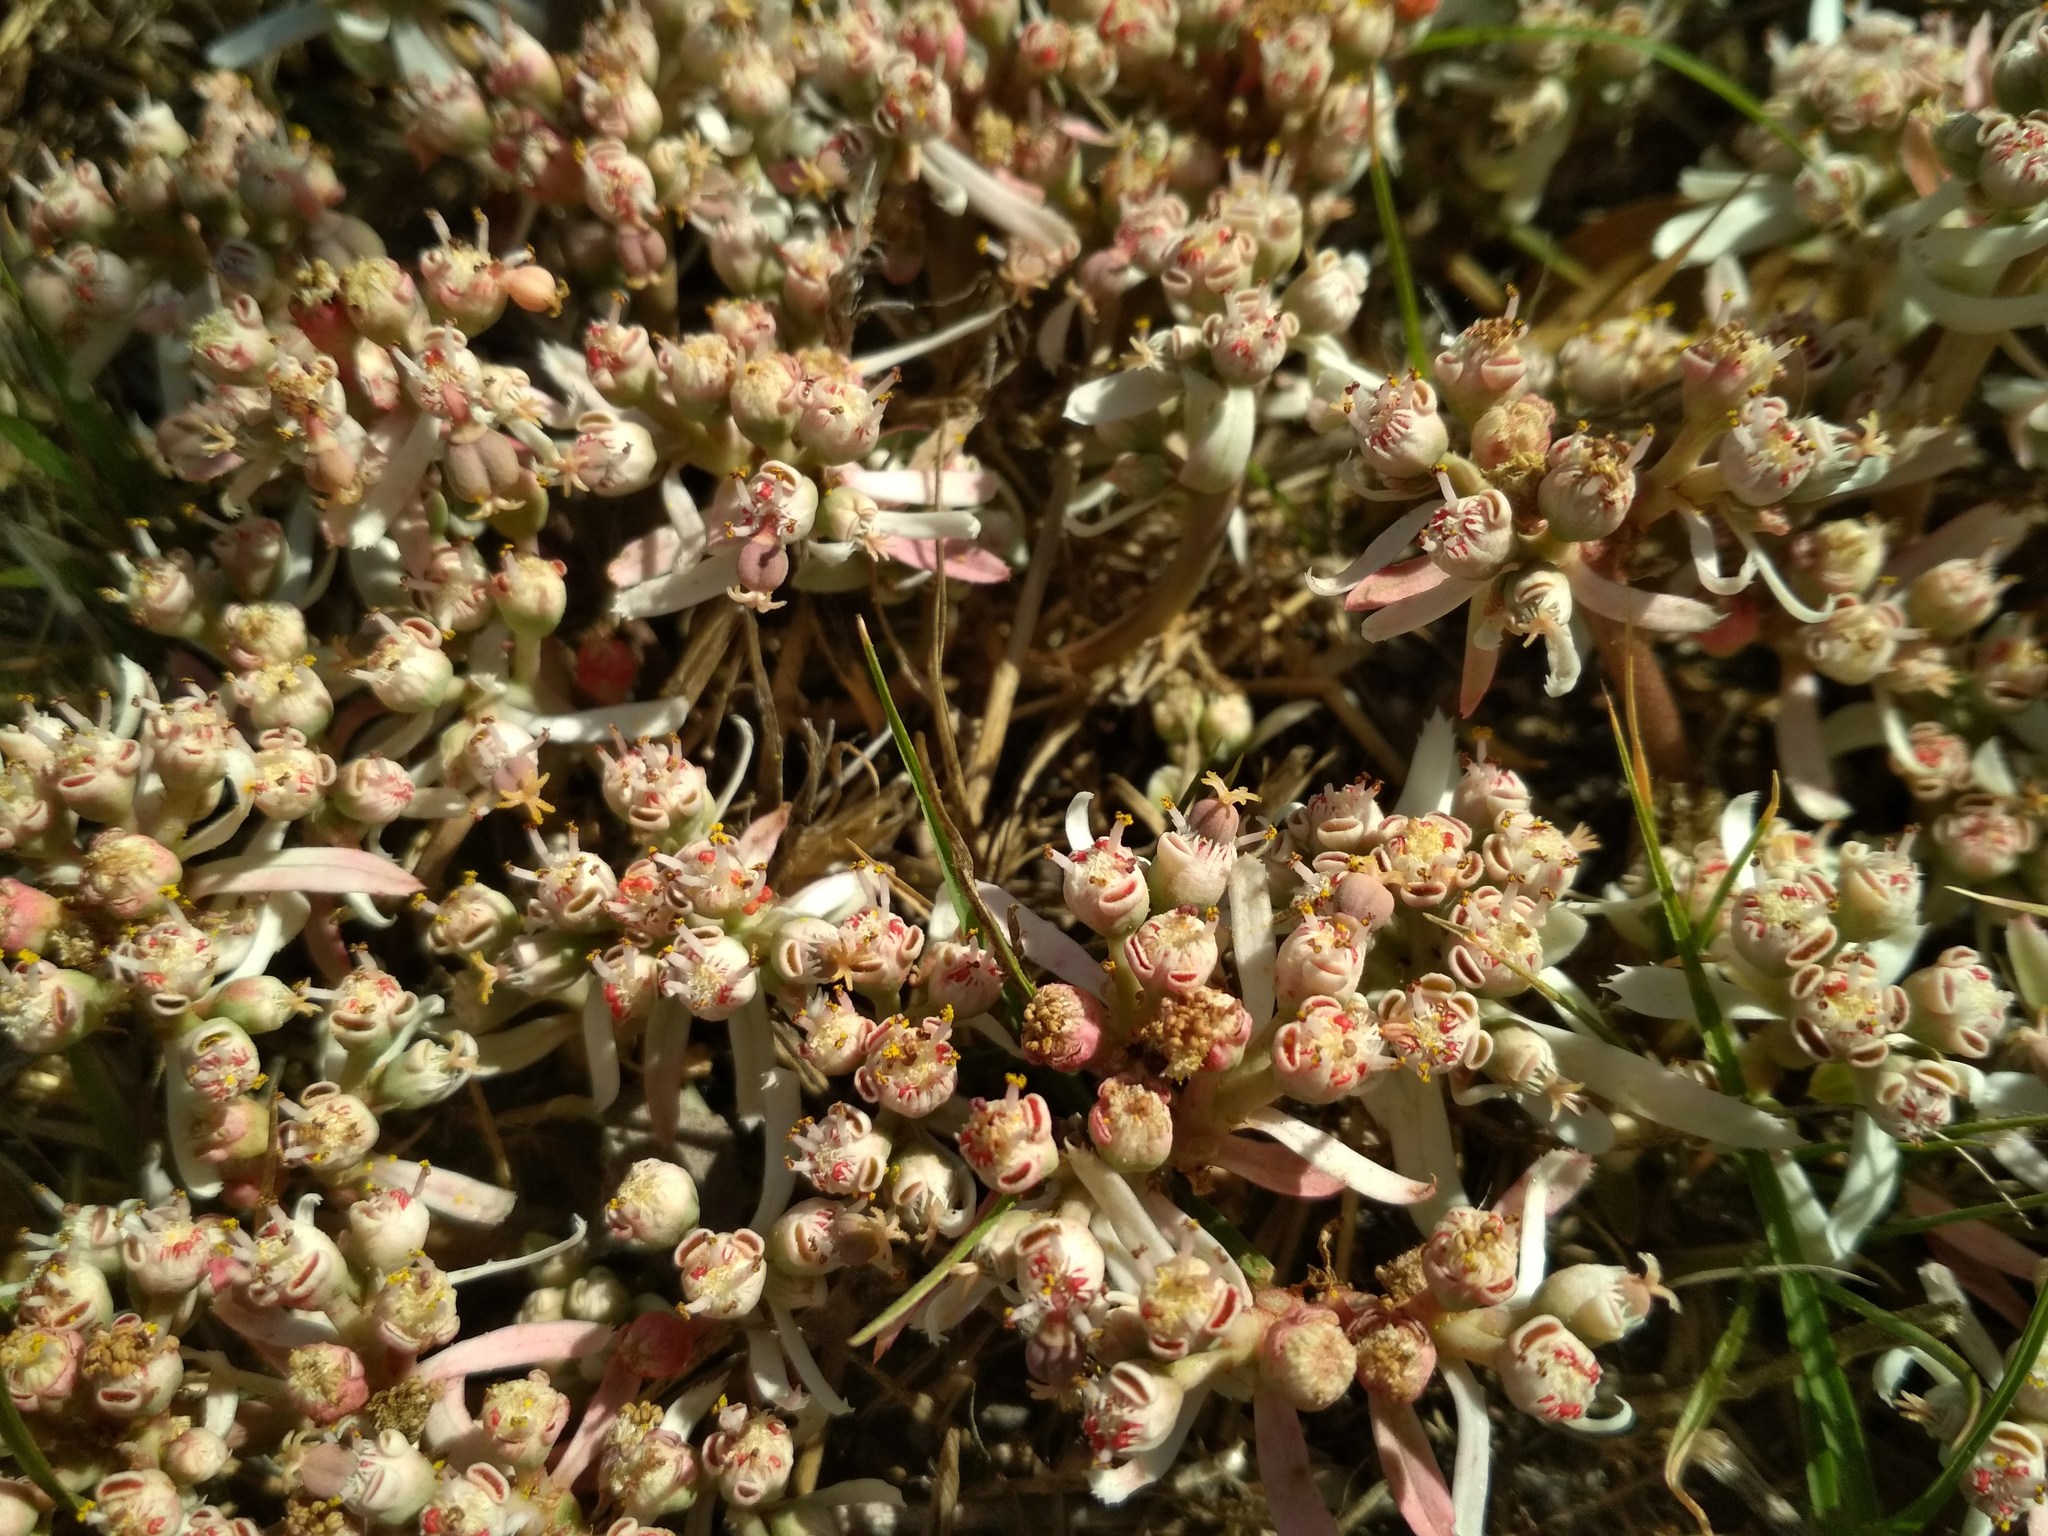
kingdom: Plantae
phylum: Tracheophyta
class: Magnoliopsida
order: Malpighiales
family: Euphorbiaceae
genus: Euphorbia
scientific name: Euphorbia radians
